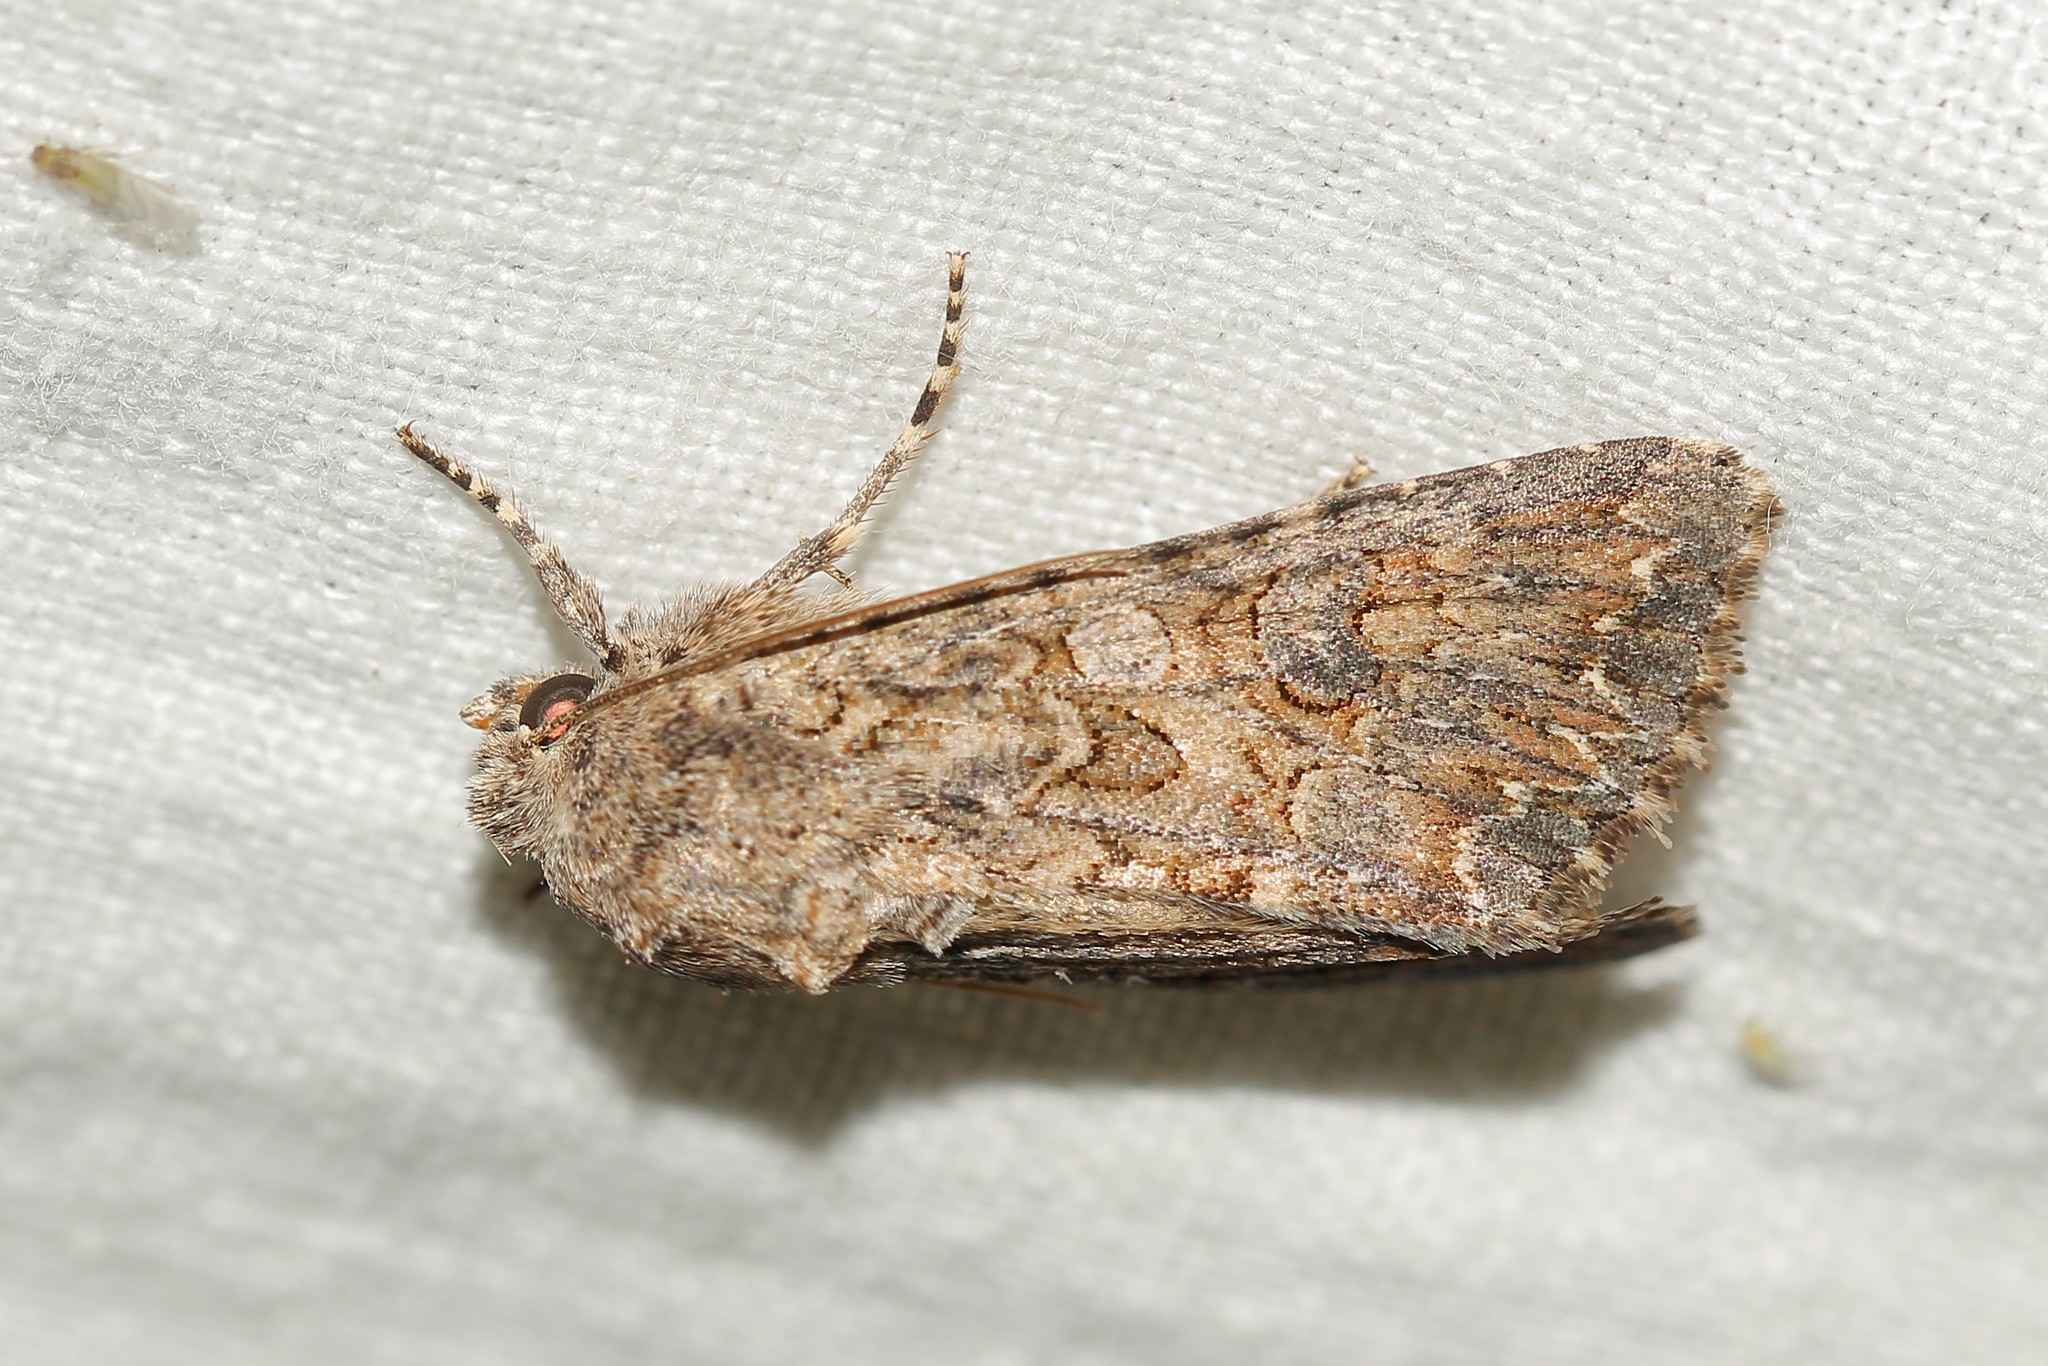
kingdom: Animalia
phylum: Arthropoda
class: Insecta
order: Lepidoptera
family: Noctuidae
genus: Anarta
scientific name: Anarta trifolii
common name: Clover cutworm moth
